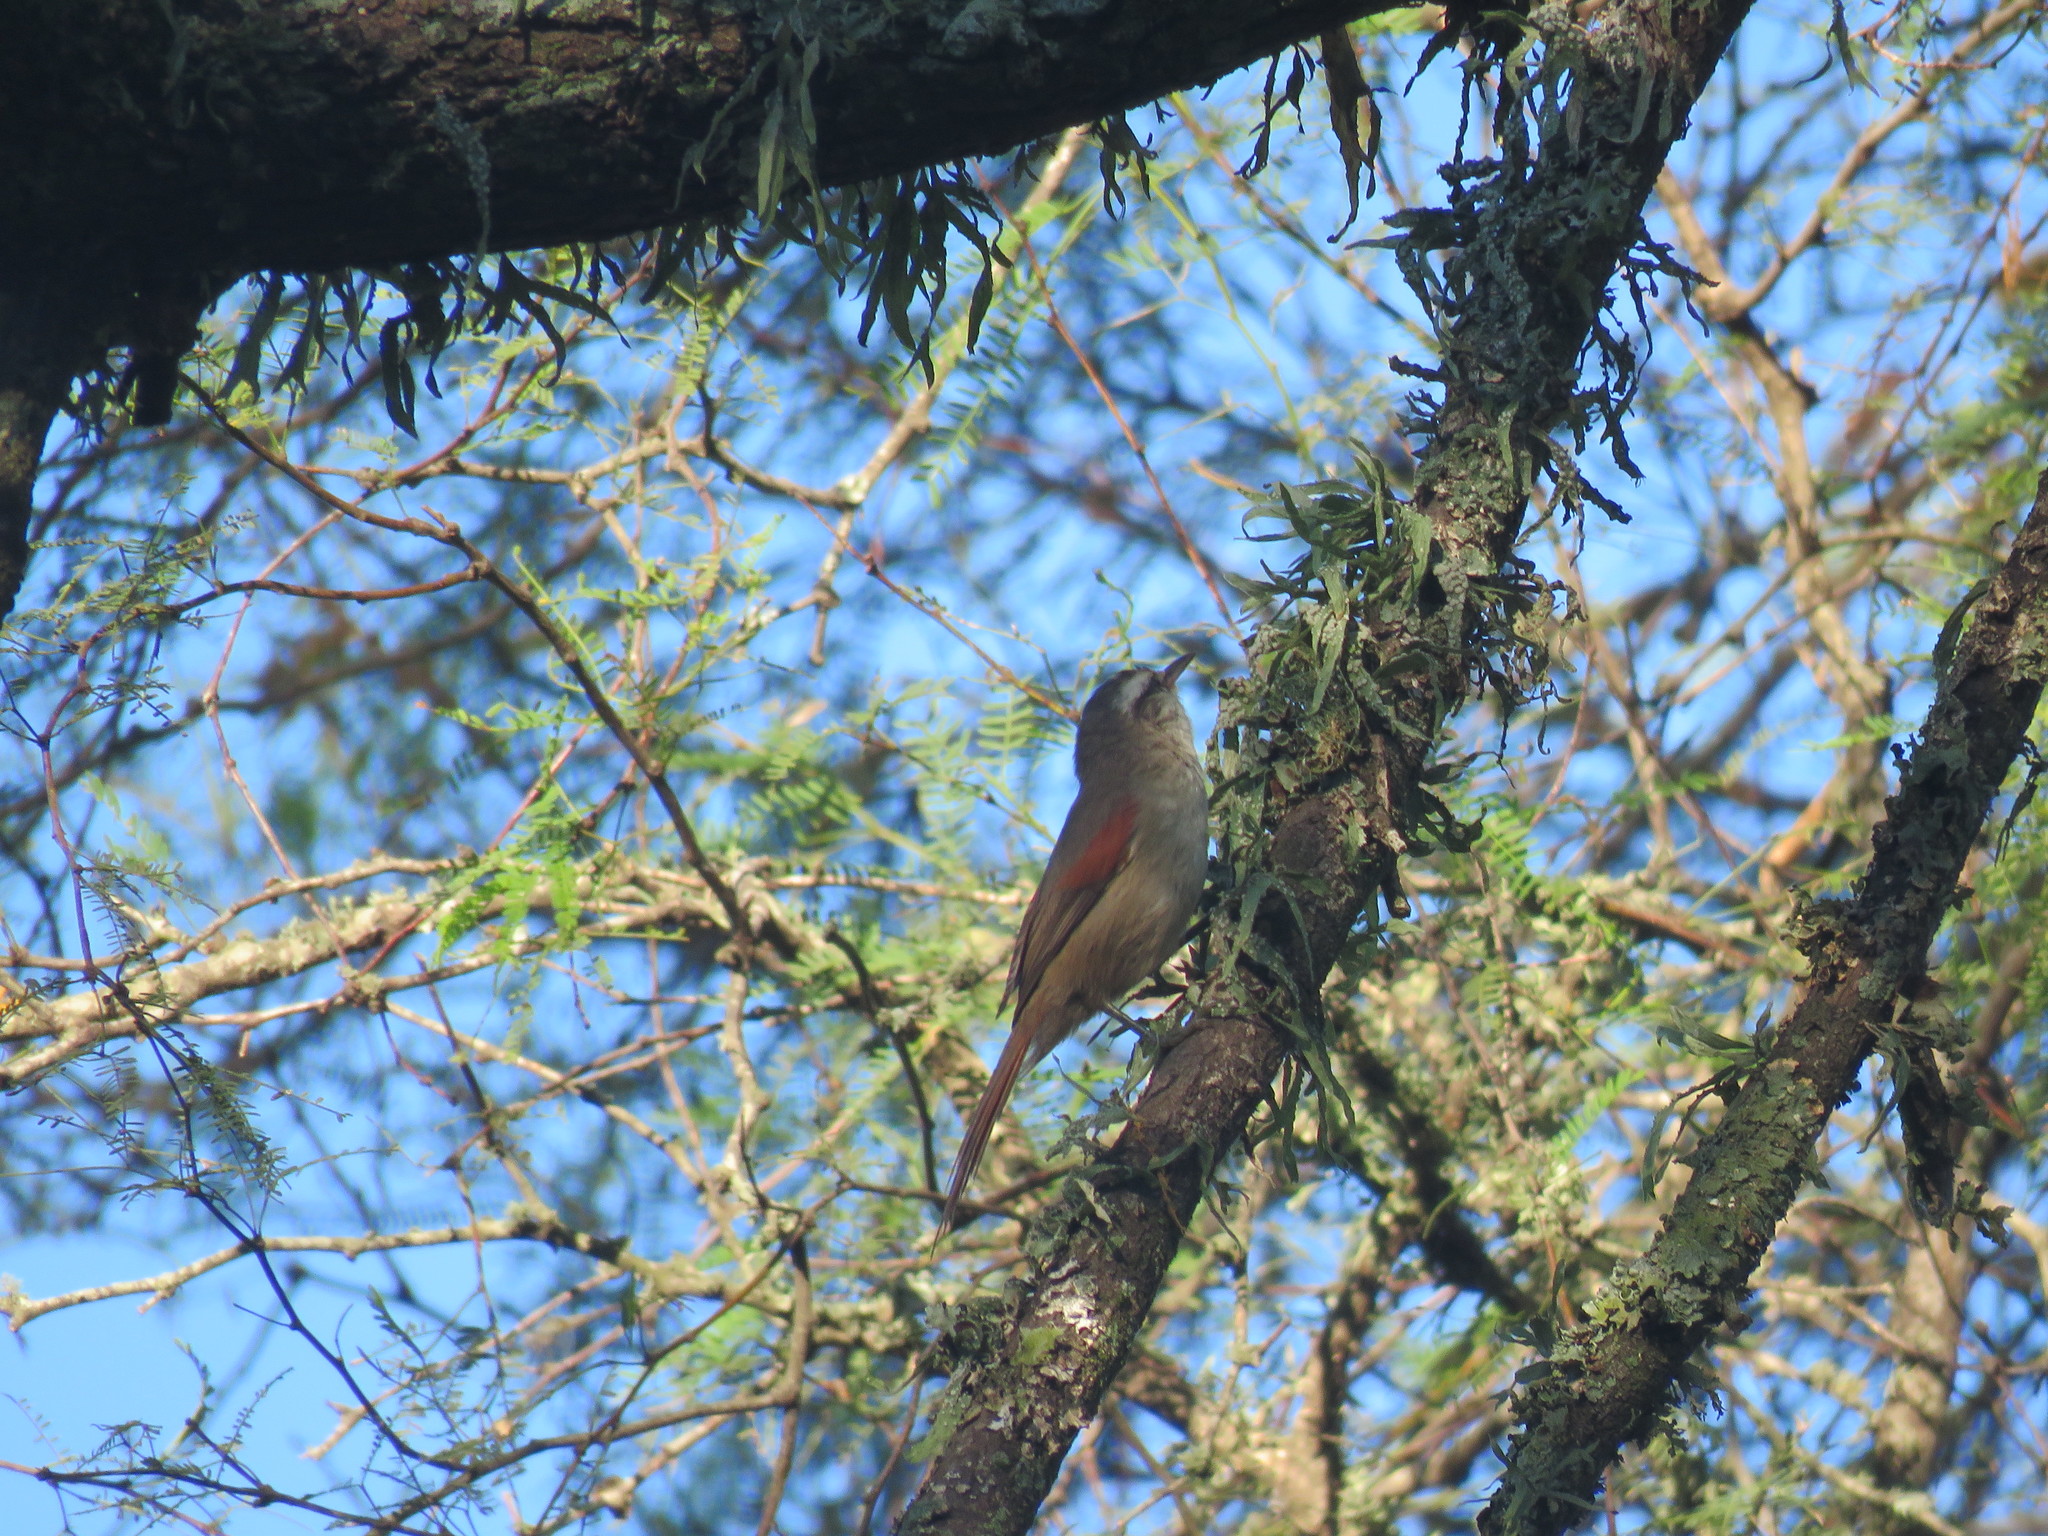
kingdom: Animalia
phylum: Chordata
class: Aves
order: Passeriformes
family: Furnariidae
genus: Cranioleuca
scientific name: Cranioleuca pyrrhophia
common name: Stripe-crowned spinetail
